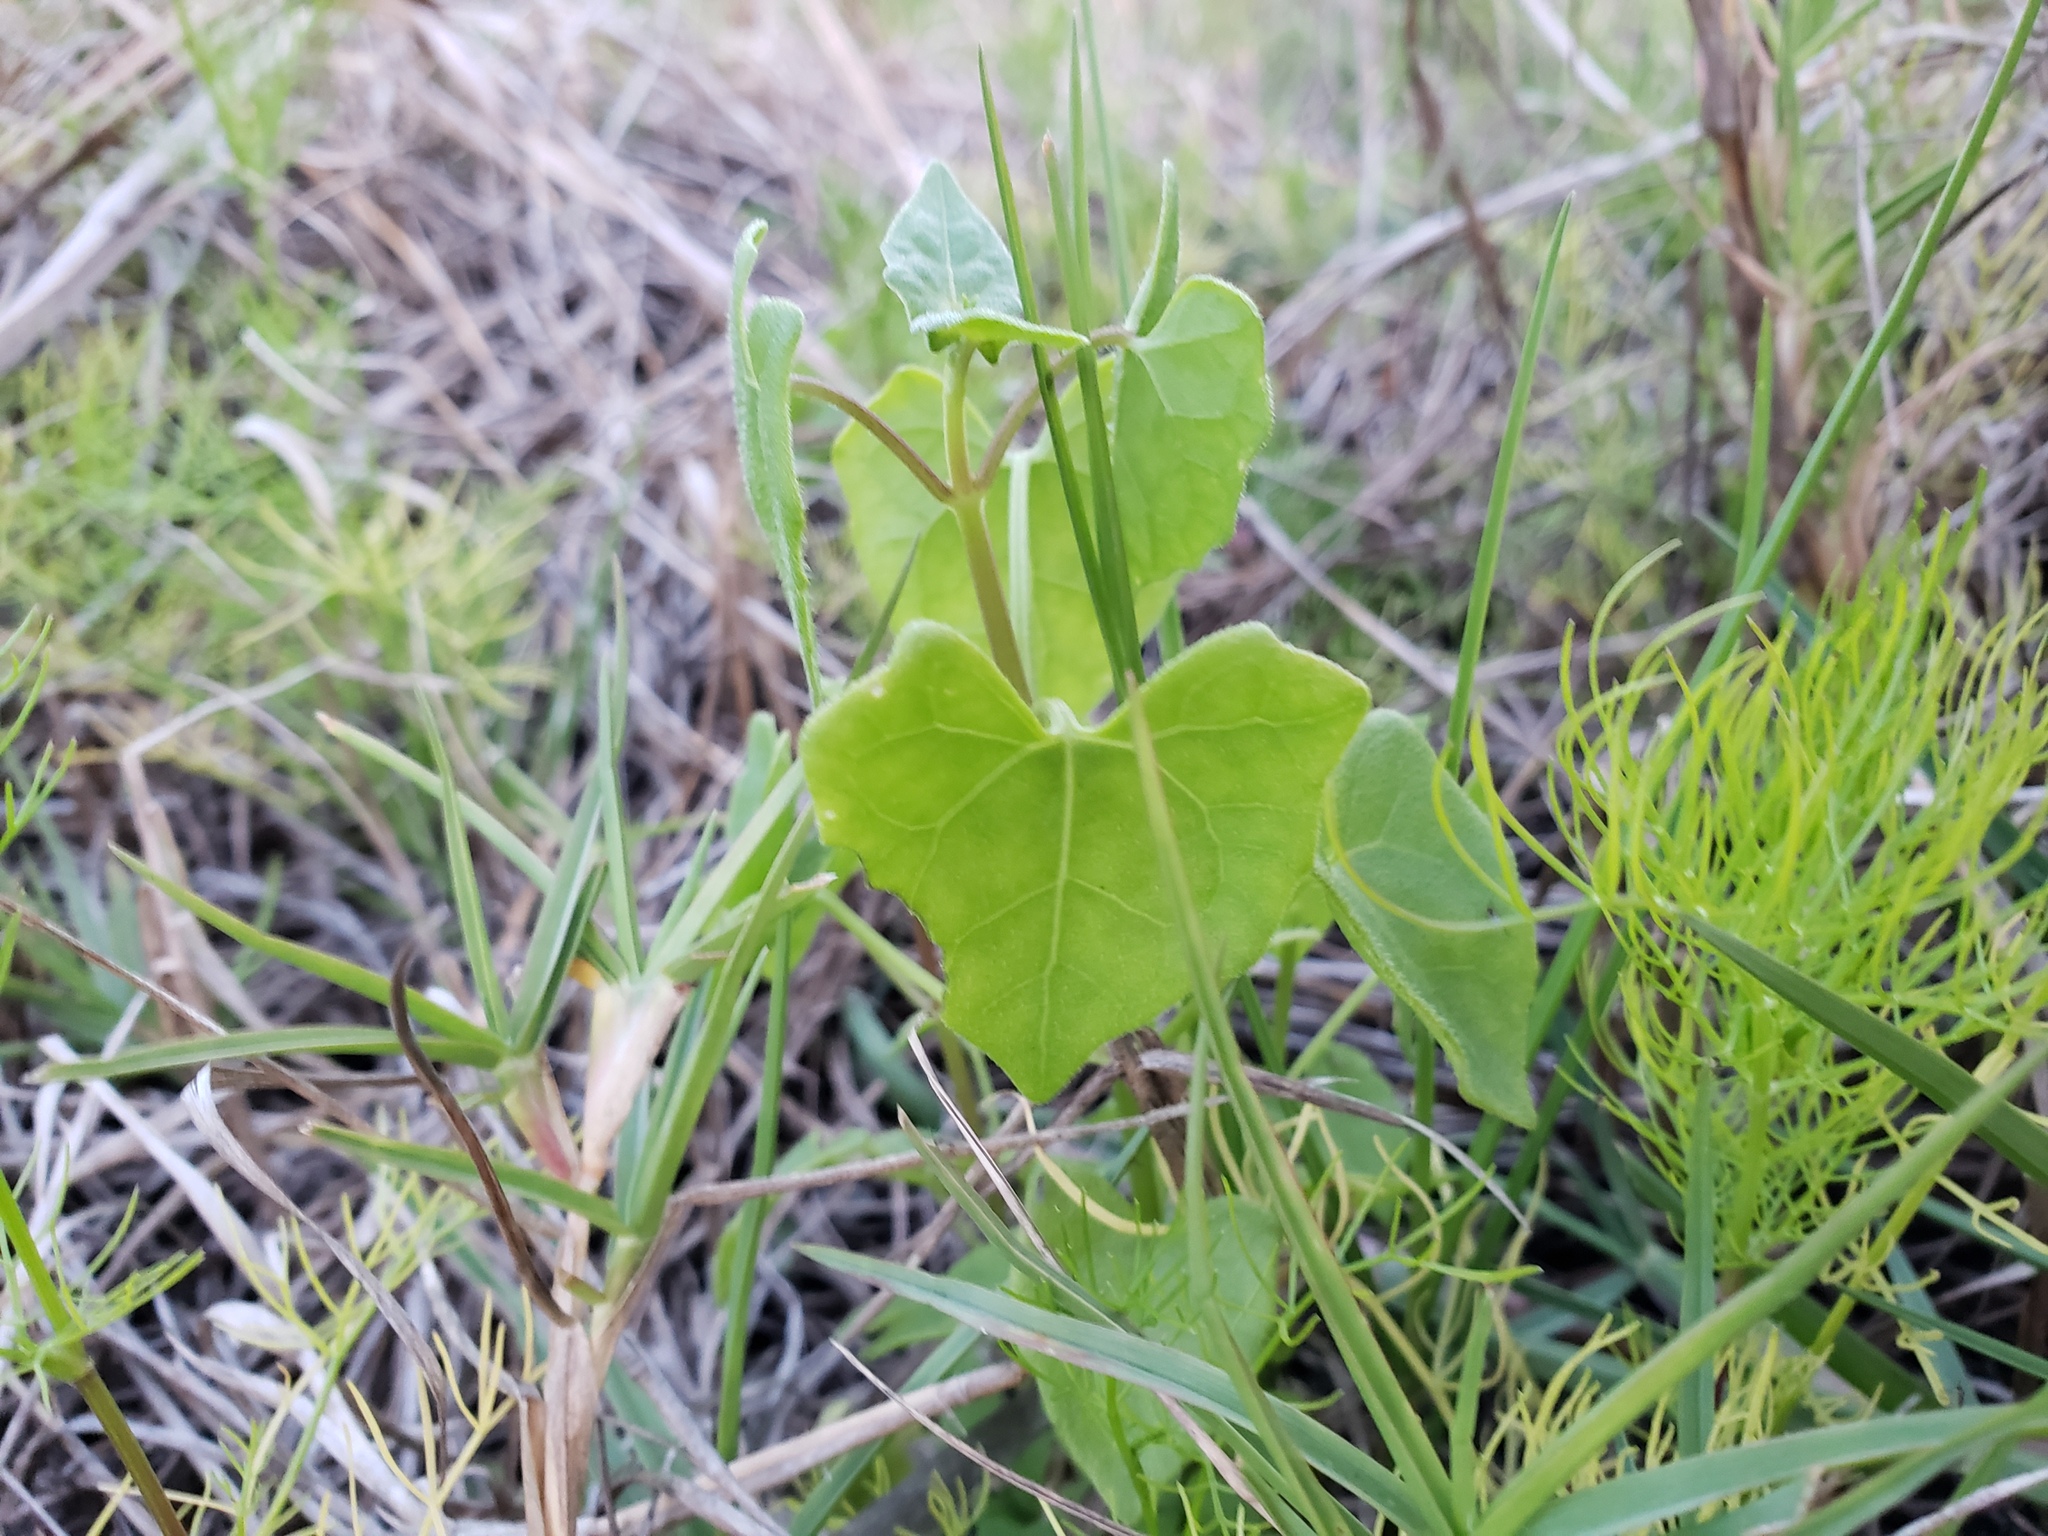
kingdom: Plantae
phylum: Tracheophyta
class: Magnoliopsida
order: Asterales
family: Asteraceae
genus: Mikania
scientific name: Mikania scandens
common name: Climbing hempvine
